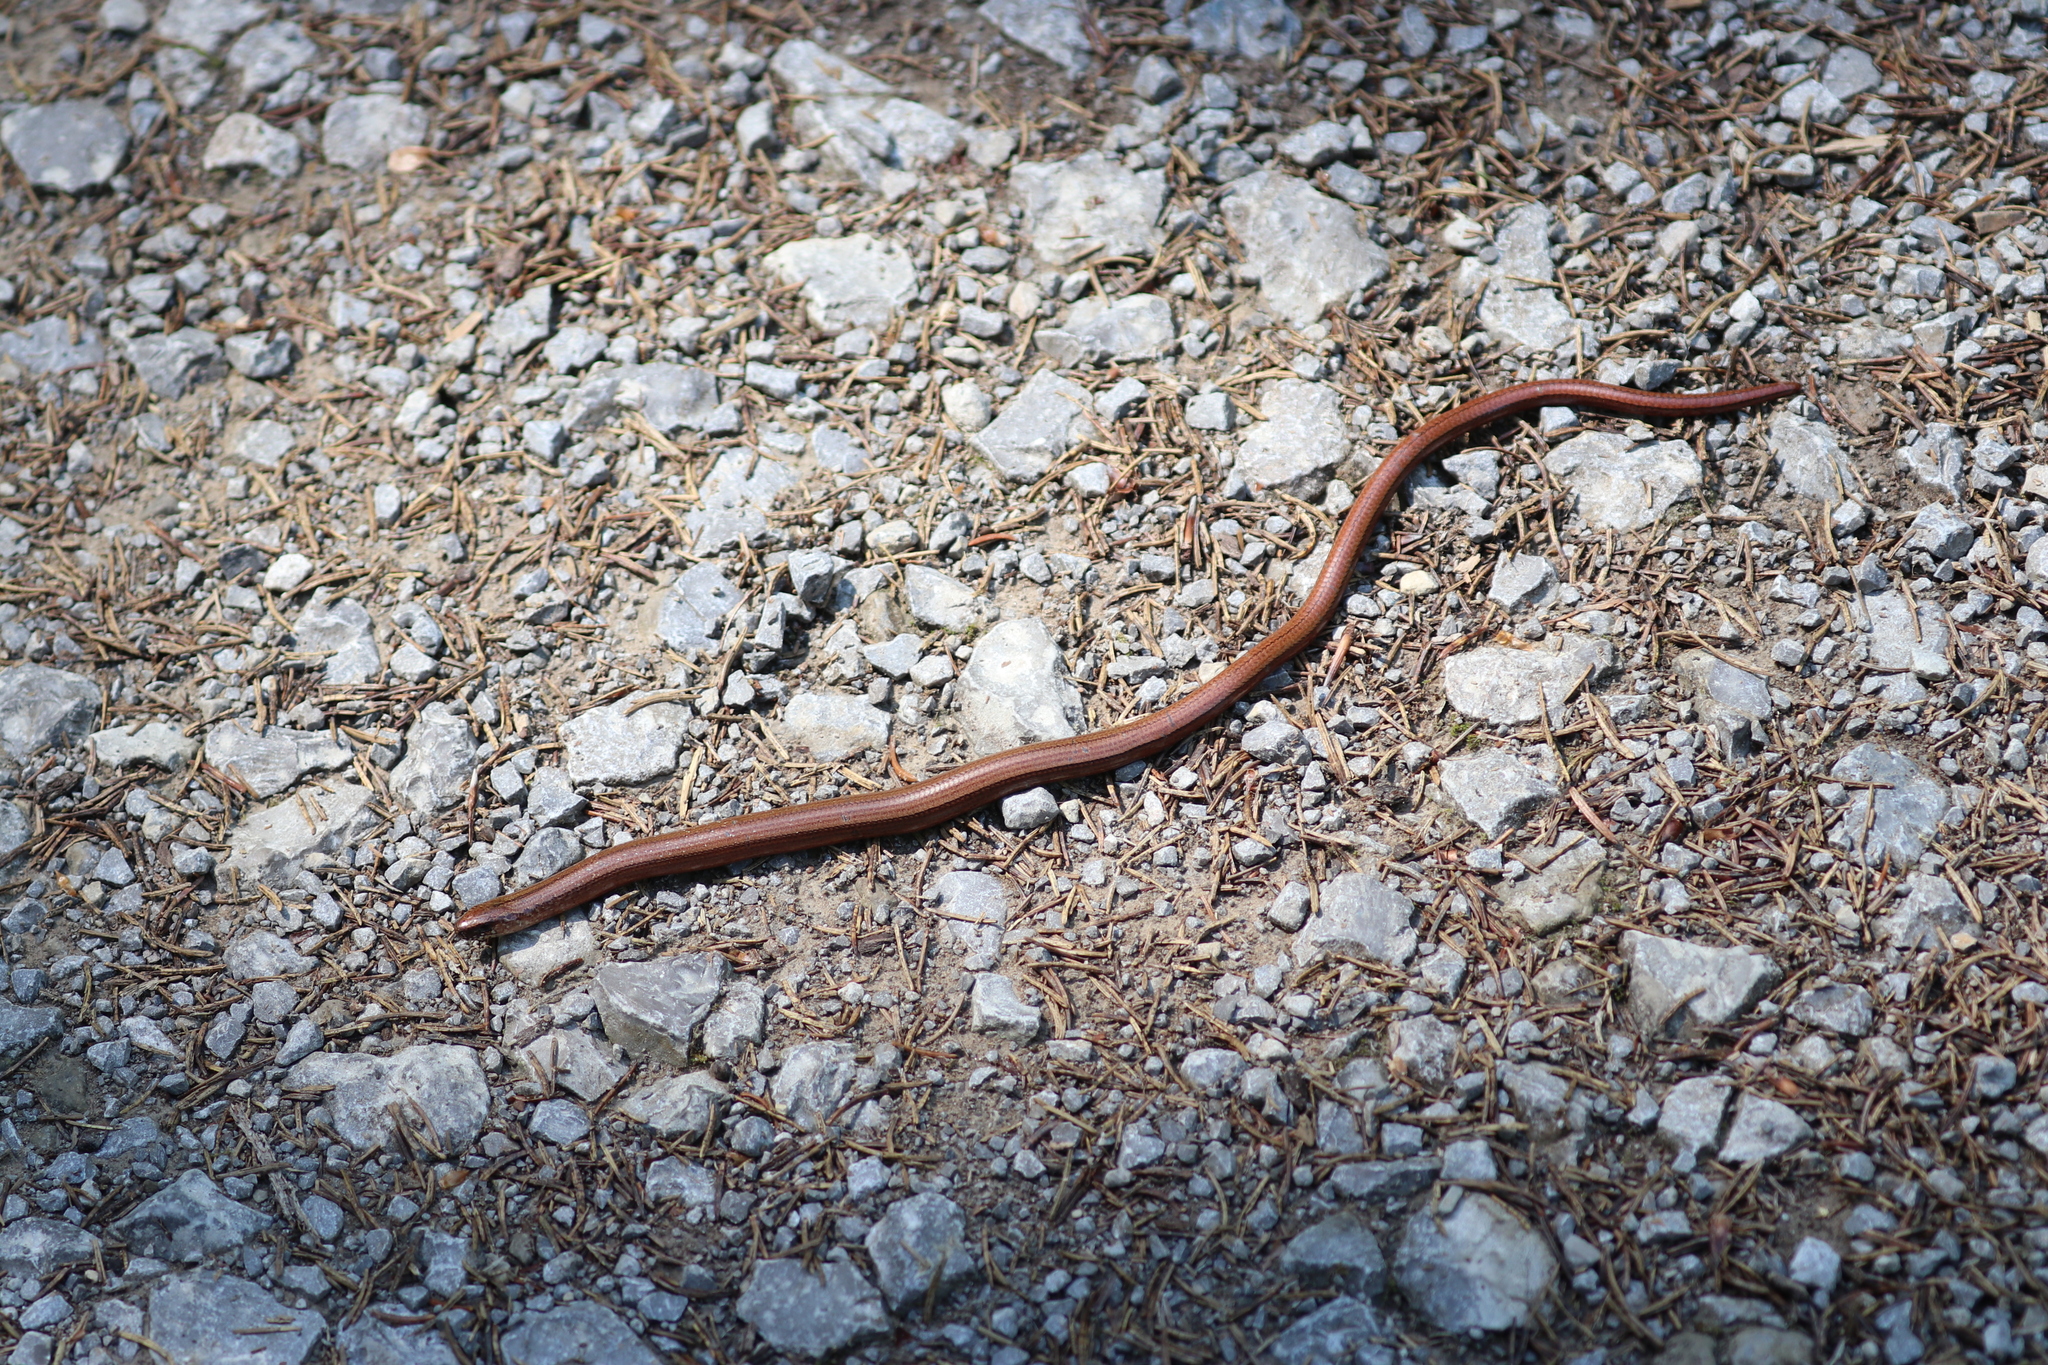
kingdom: Animalia
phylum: Chordata
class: Squamata
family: Anguidae
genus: Anguis
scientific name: Anguis fragilis
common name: Slow worm
